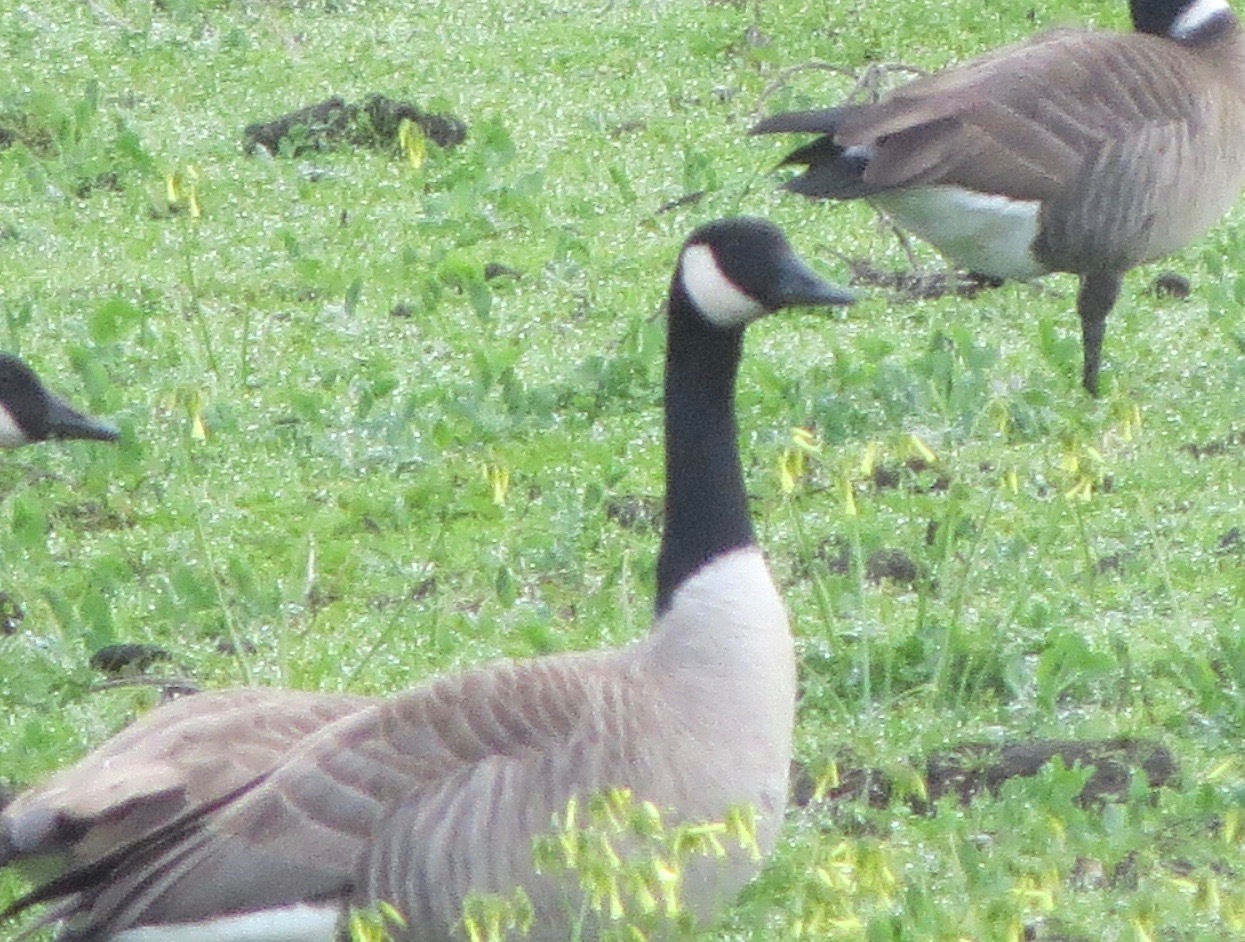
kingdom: Animalia
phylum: Chordata
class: Aves
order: Anseriformes
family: Anatidae
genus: Branta
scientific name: Branta canadensis
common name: Canada goose
